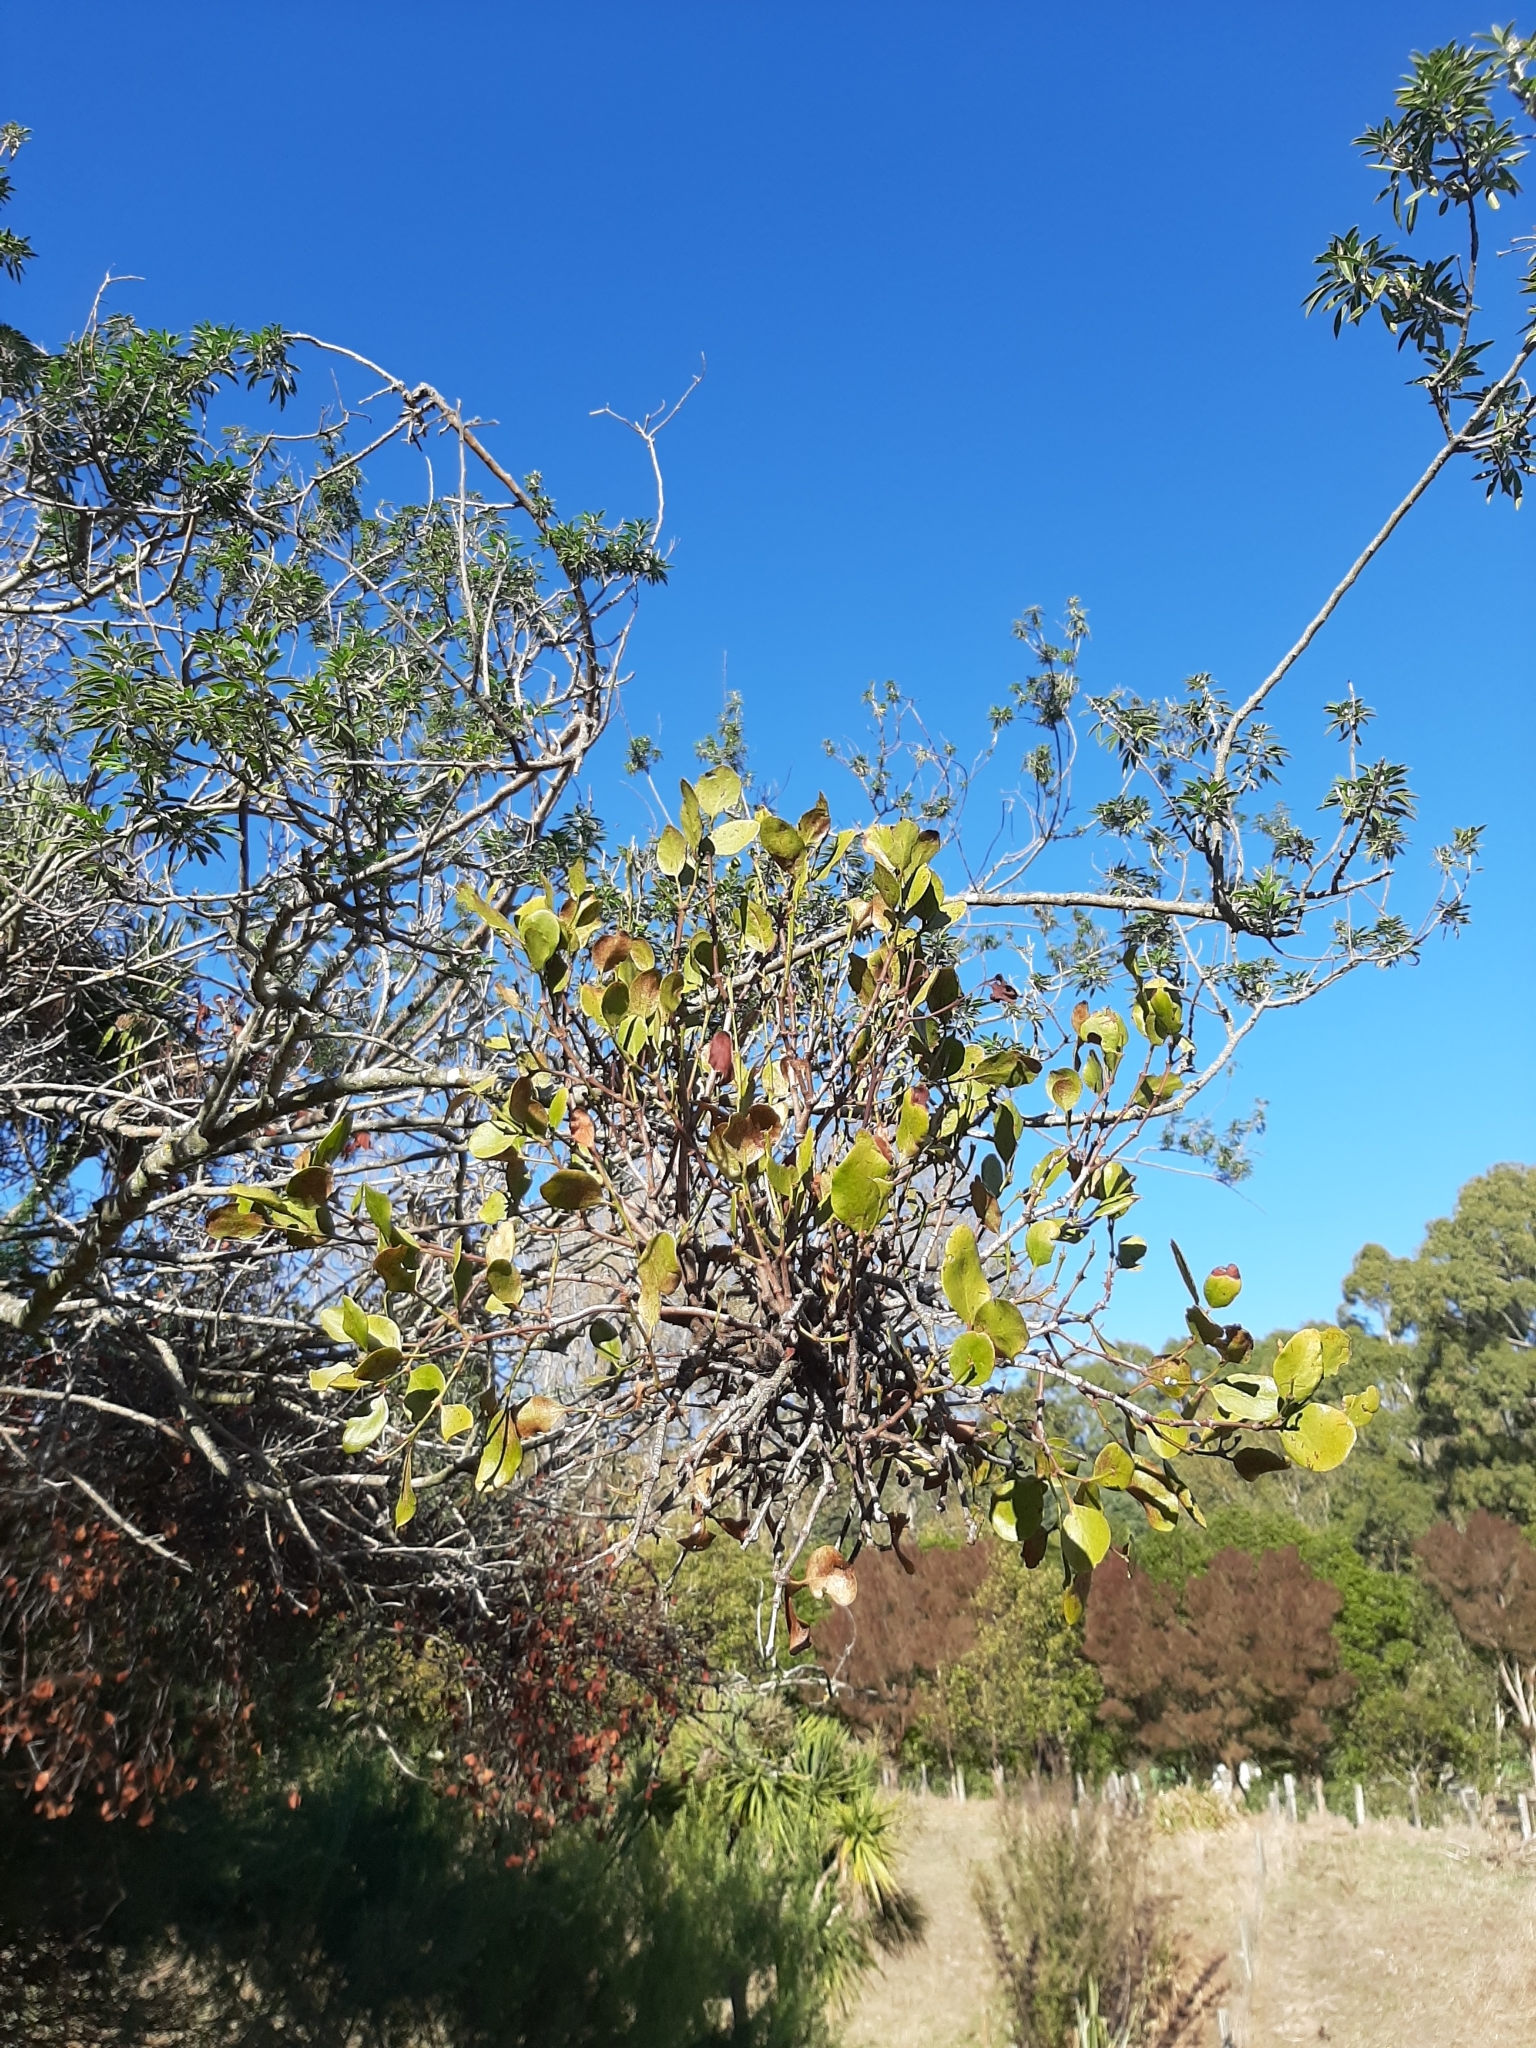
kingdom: Plantae
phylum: Tracheophyta
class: Magnoliopsida
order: Santalales
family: Loranthaceae
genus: Ileostylus
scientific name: Ileostylus micranthus
